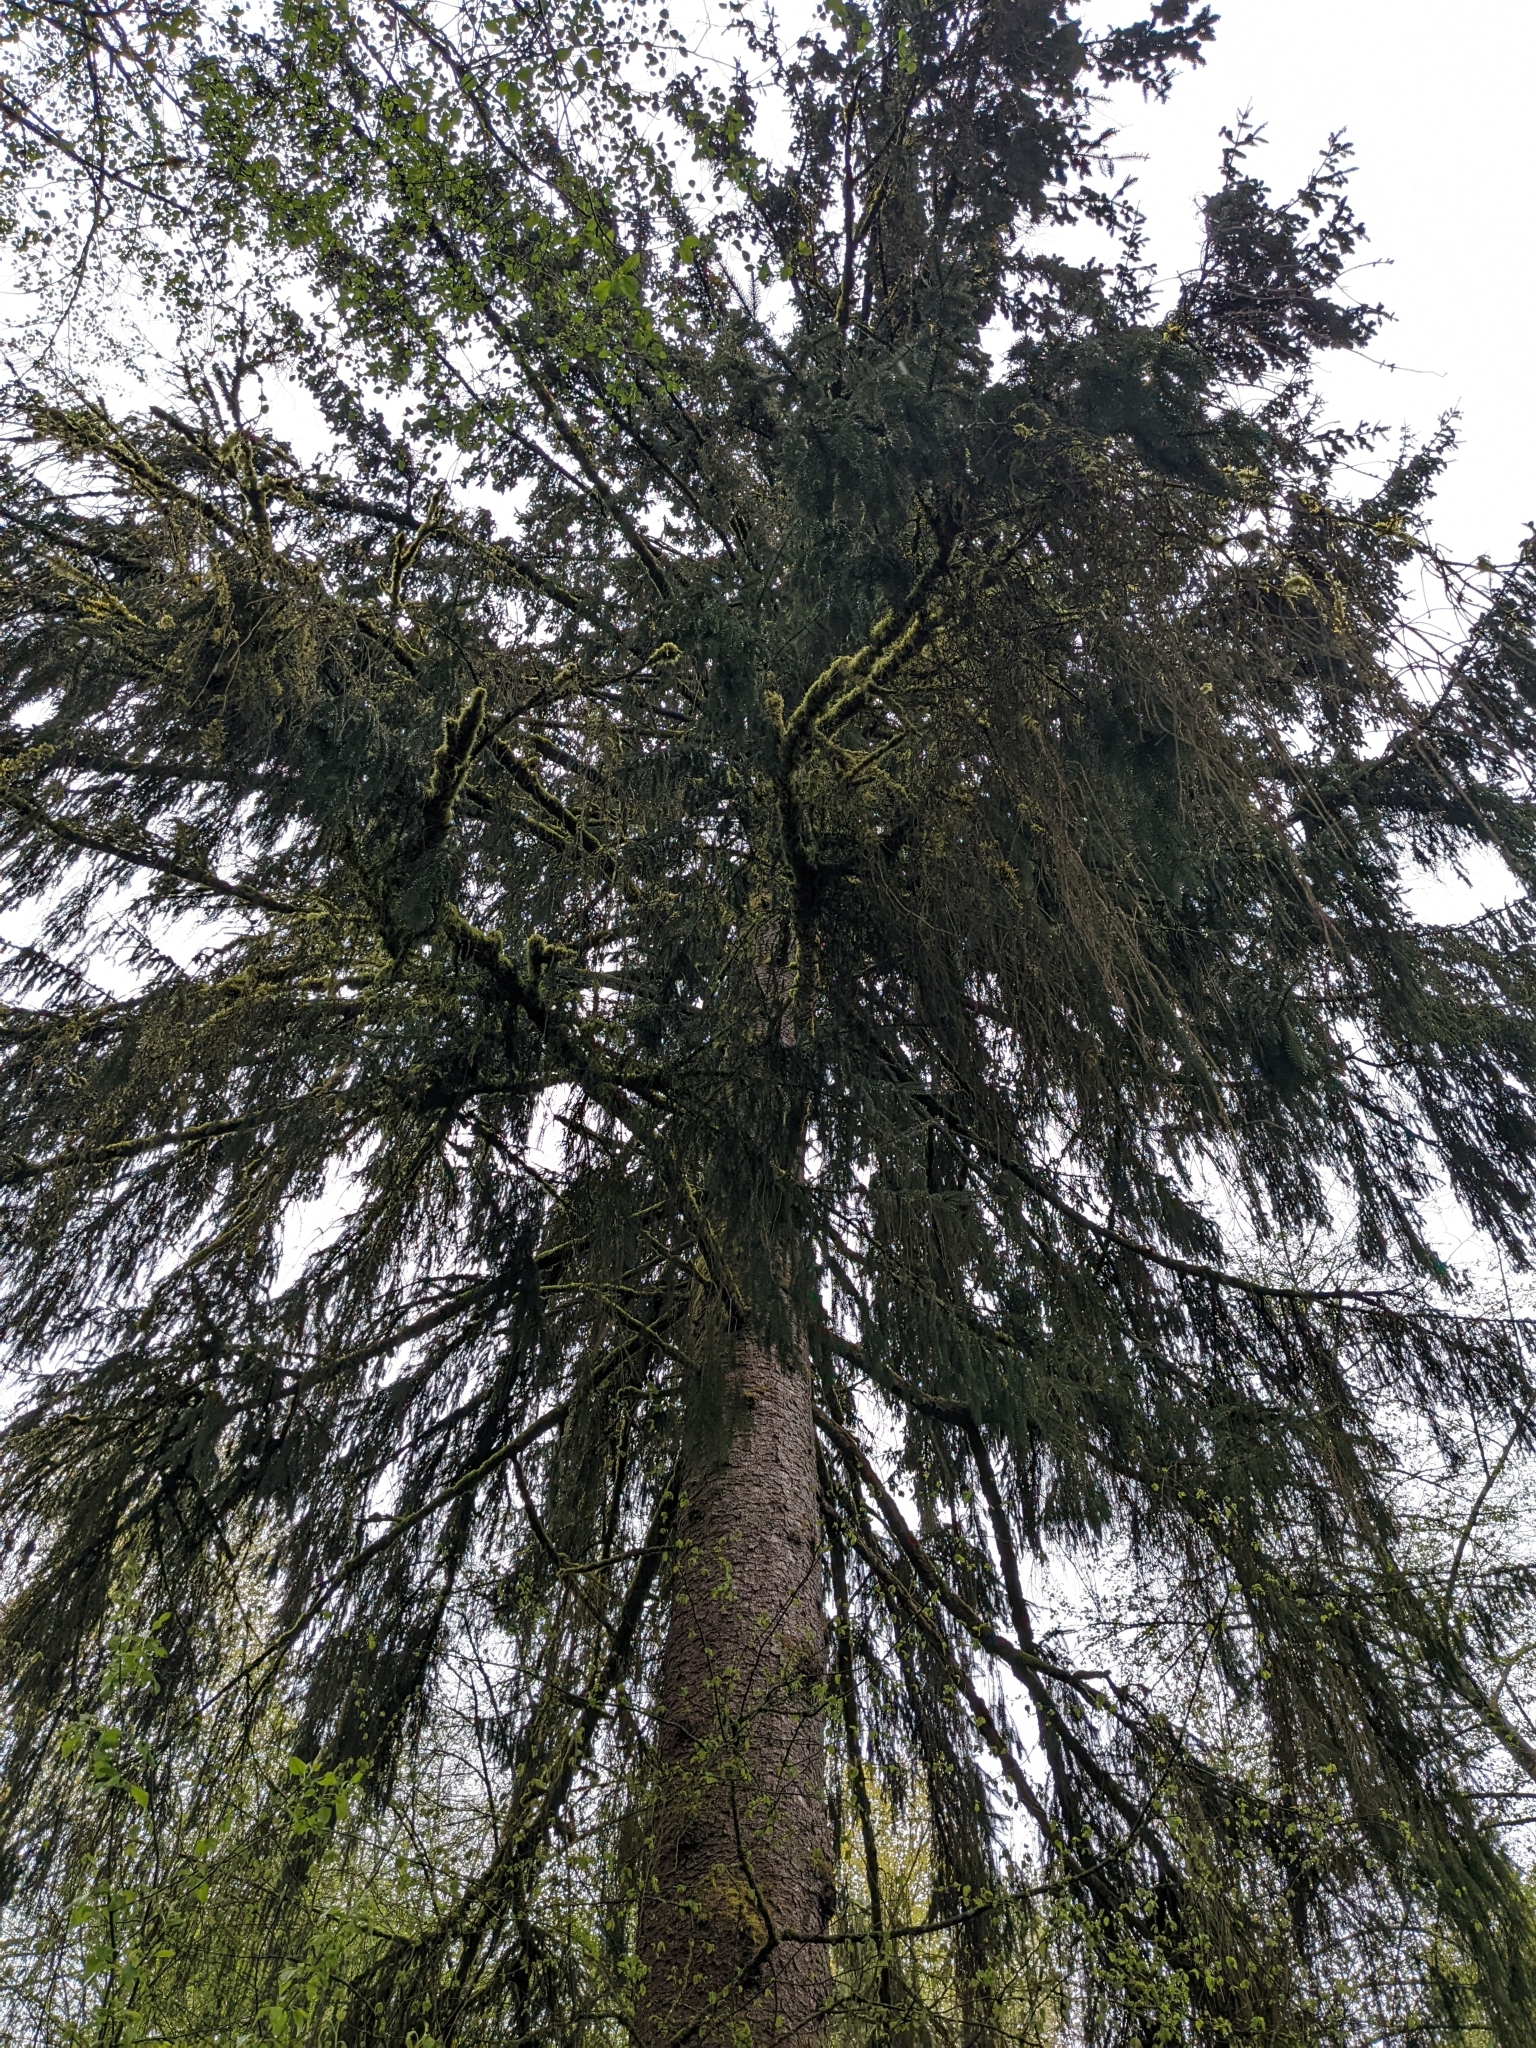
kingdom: Plantae
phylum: Tracheophyta
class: Pinopsida
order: Pinales
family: Pinaceae
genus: Picea
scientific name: Picea sitchensis
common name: Sitka spruce
